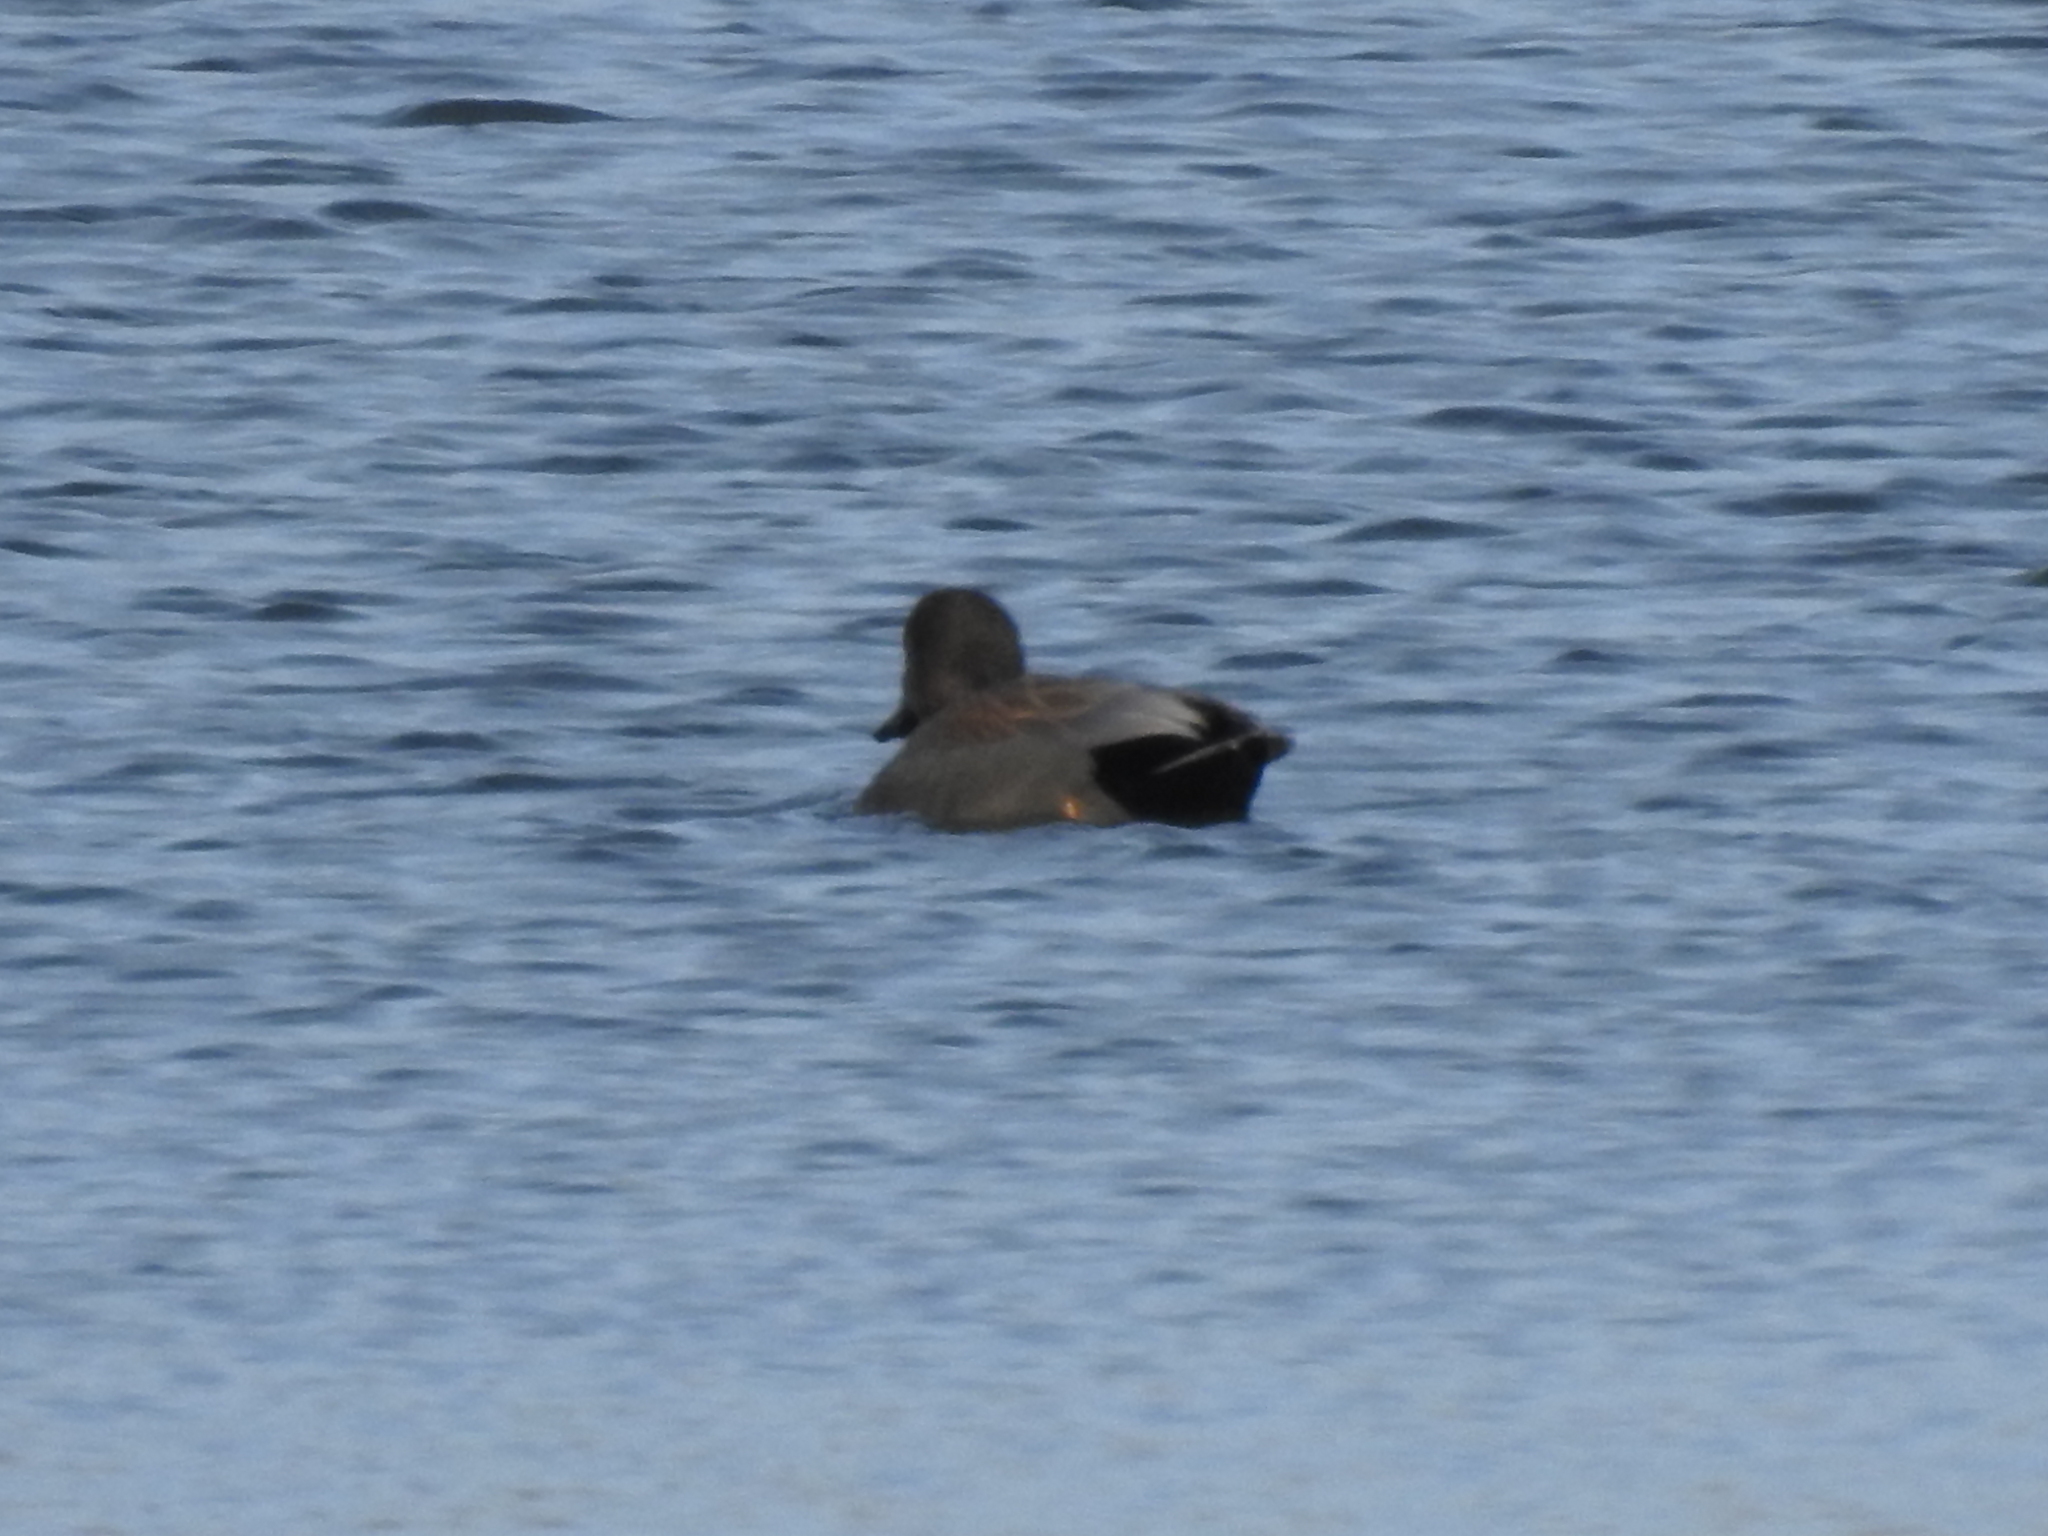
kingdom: Animalia
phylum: Chordata
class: Aves
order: Anseriformes
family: Anatidae
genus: Mareca
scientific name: Mareca strepera
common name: Gadwall
